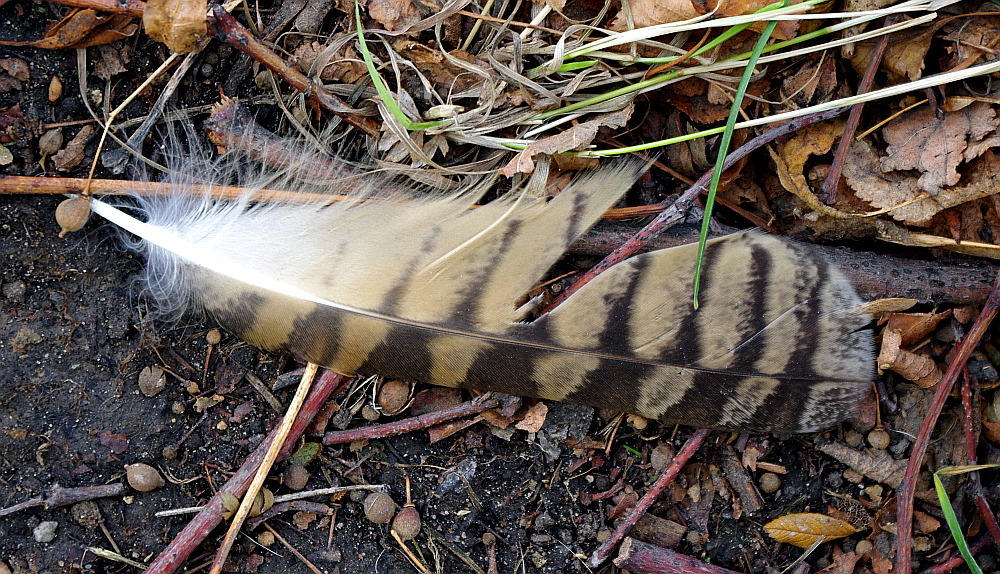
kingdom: Animalia
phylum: Chordata
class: Aves
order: Strigiformes
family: Strigidae
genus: Asio
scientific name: Asio otus
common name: Long-eared owl
